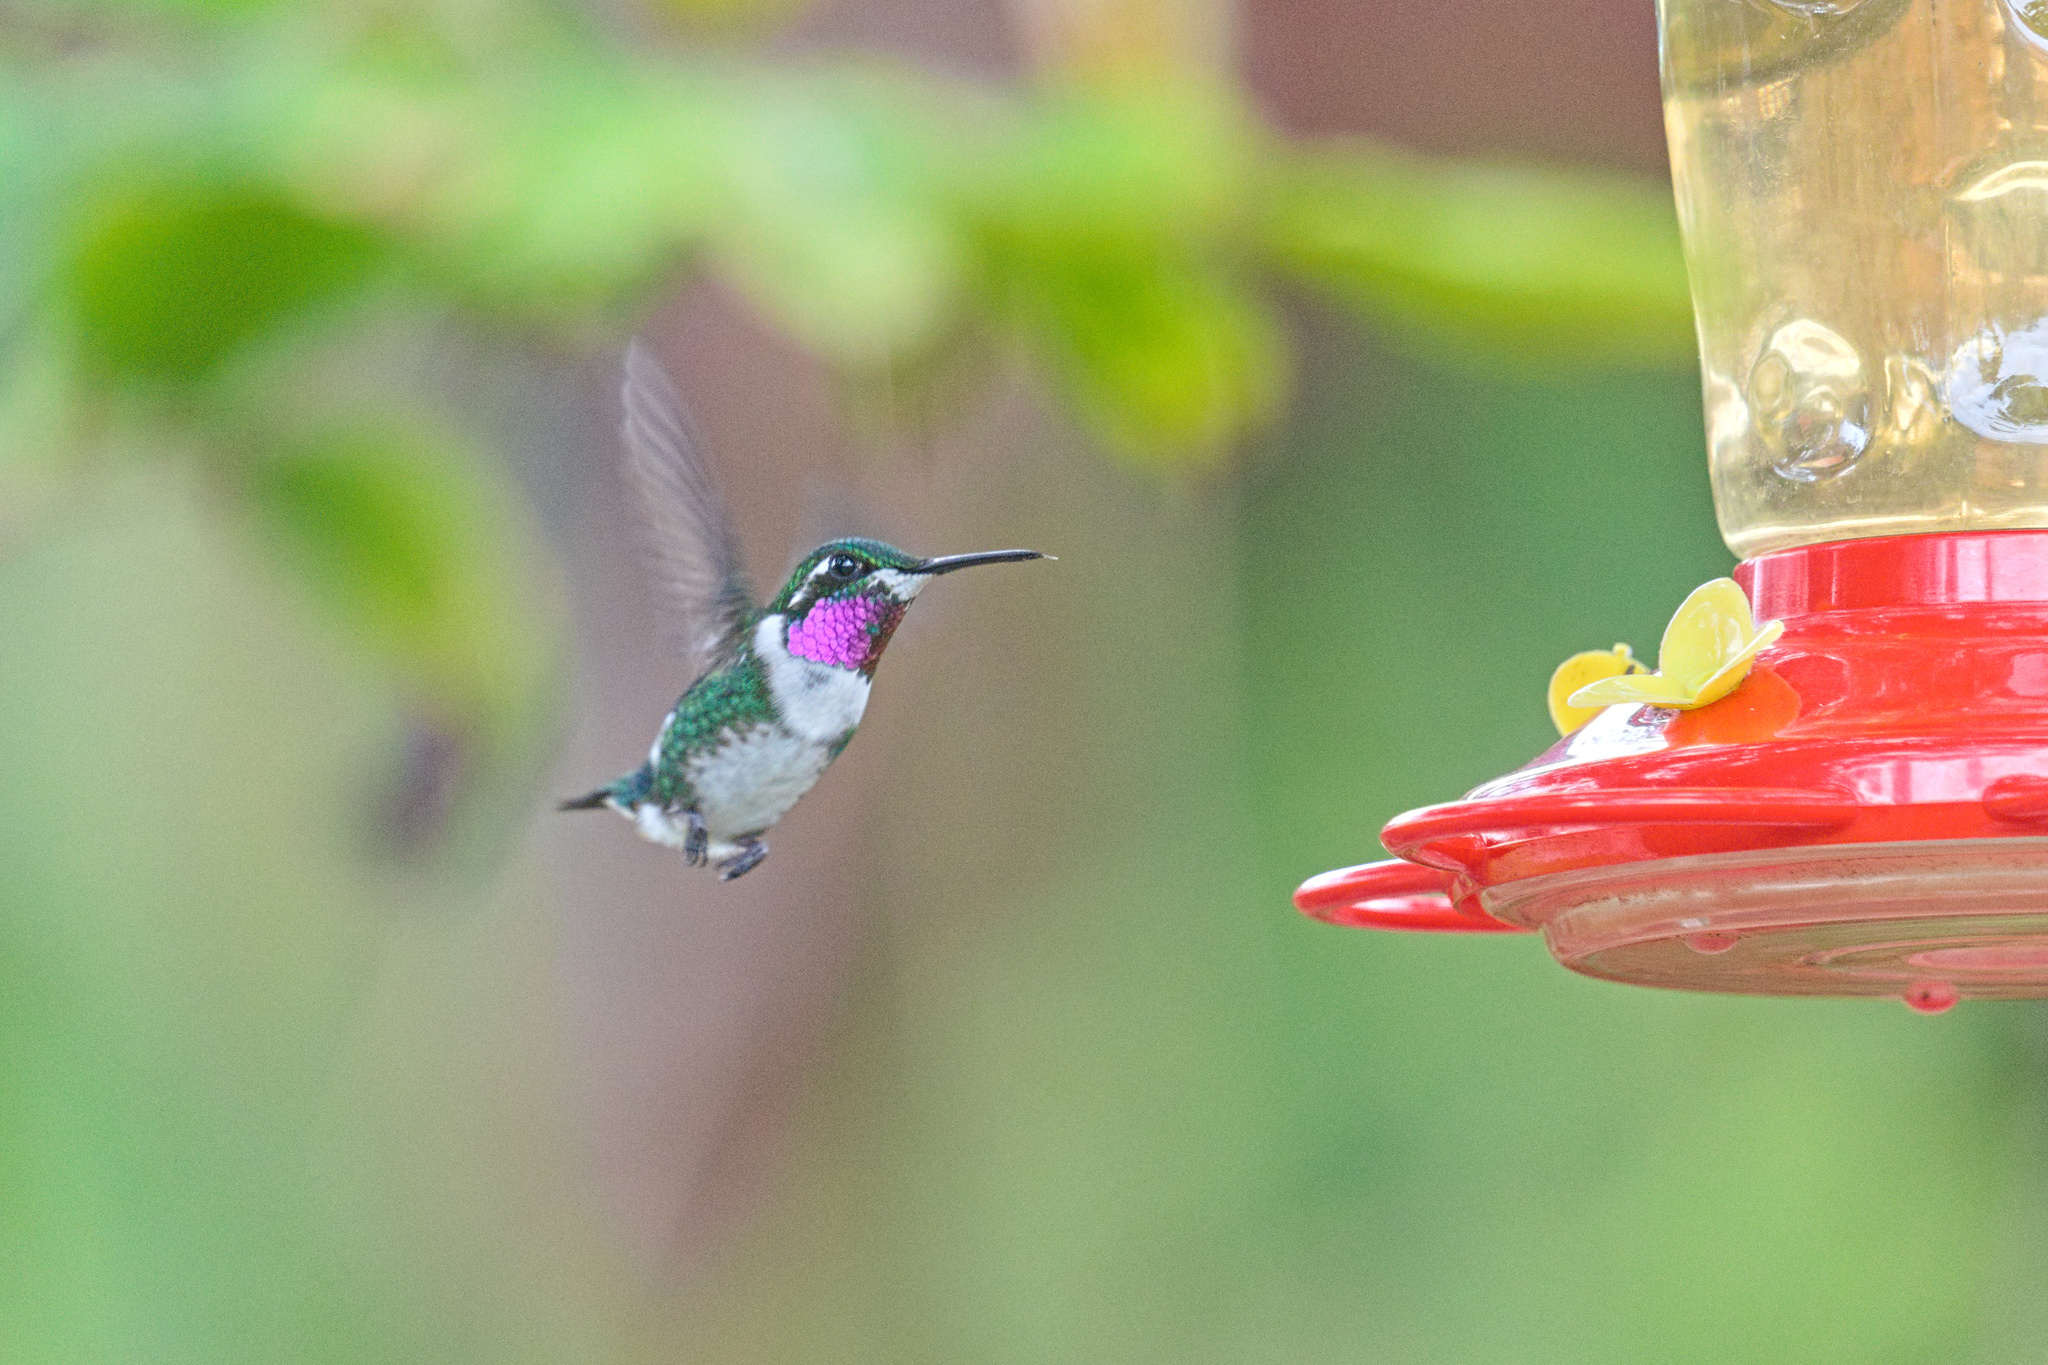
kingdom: Animalia
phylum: Chordata
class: Aves
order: Apodiformes
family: Trochilidae
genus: Chaetocercus
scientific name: Chaetocercus mulsant
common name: White-bellied woodstar
